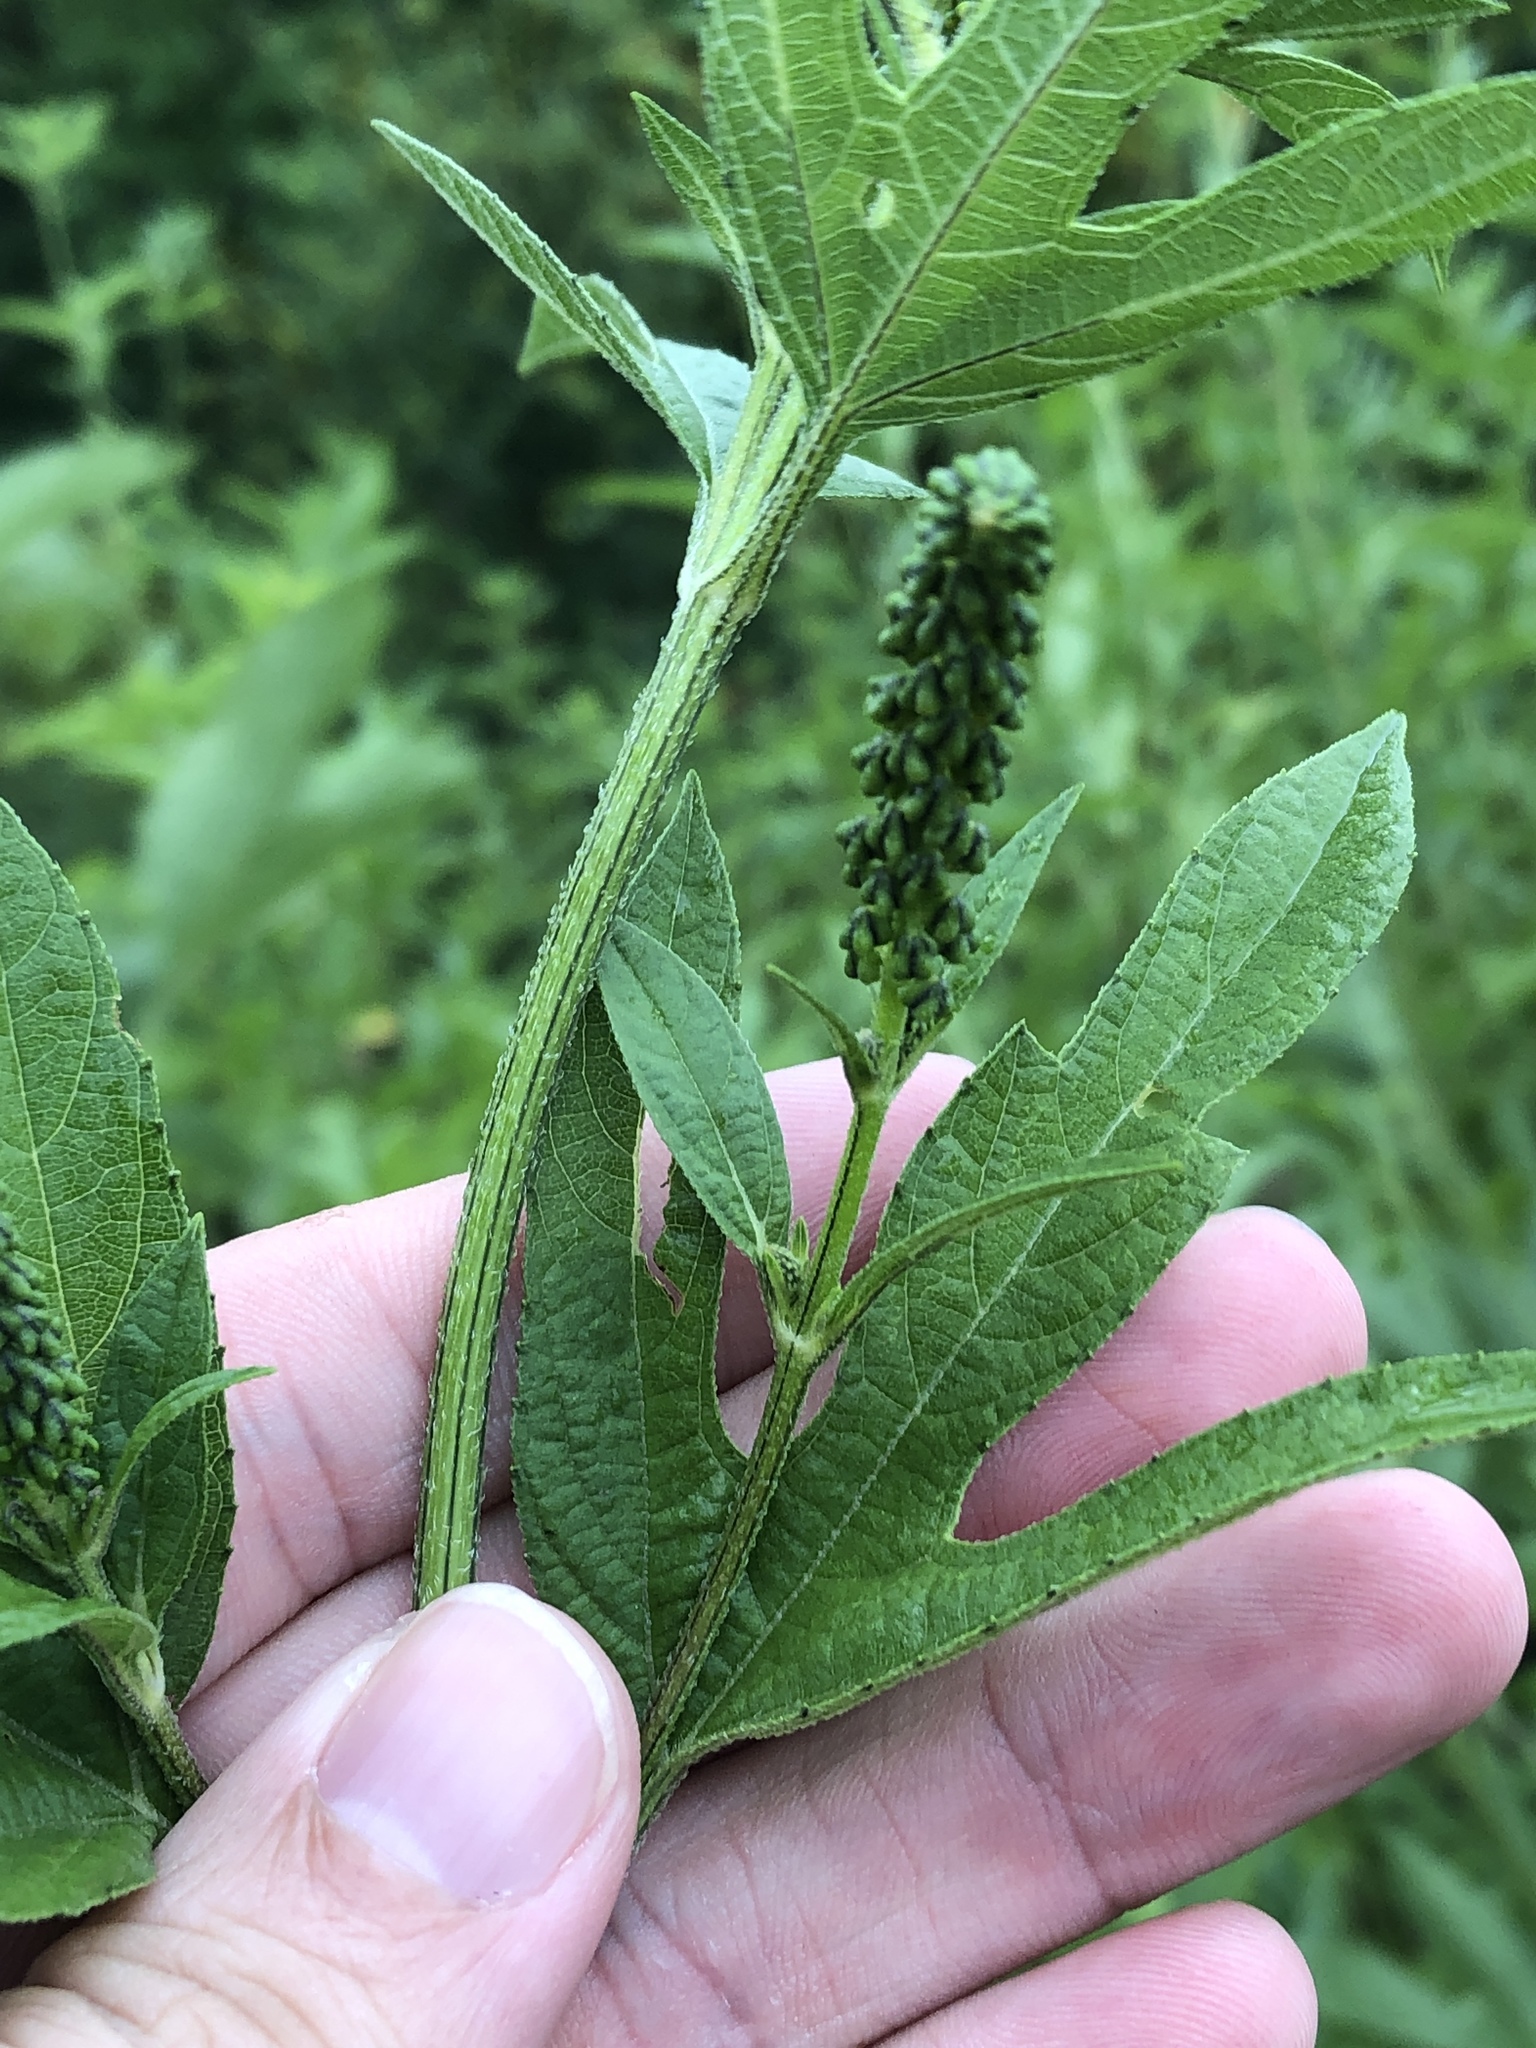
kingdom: Plantae
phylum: Tracheophyta
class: Magnoliopsida
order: Asterales
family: Asteraceae
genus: Ambrosia
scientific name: Ambrosia trifida
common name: Giant ragweed
